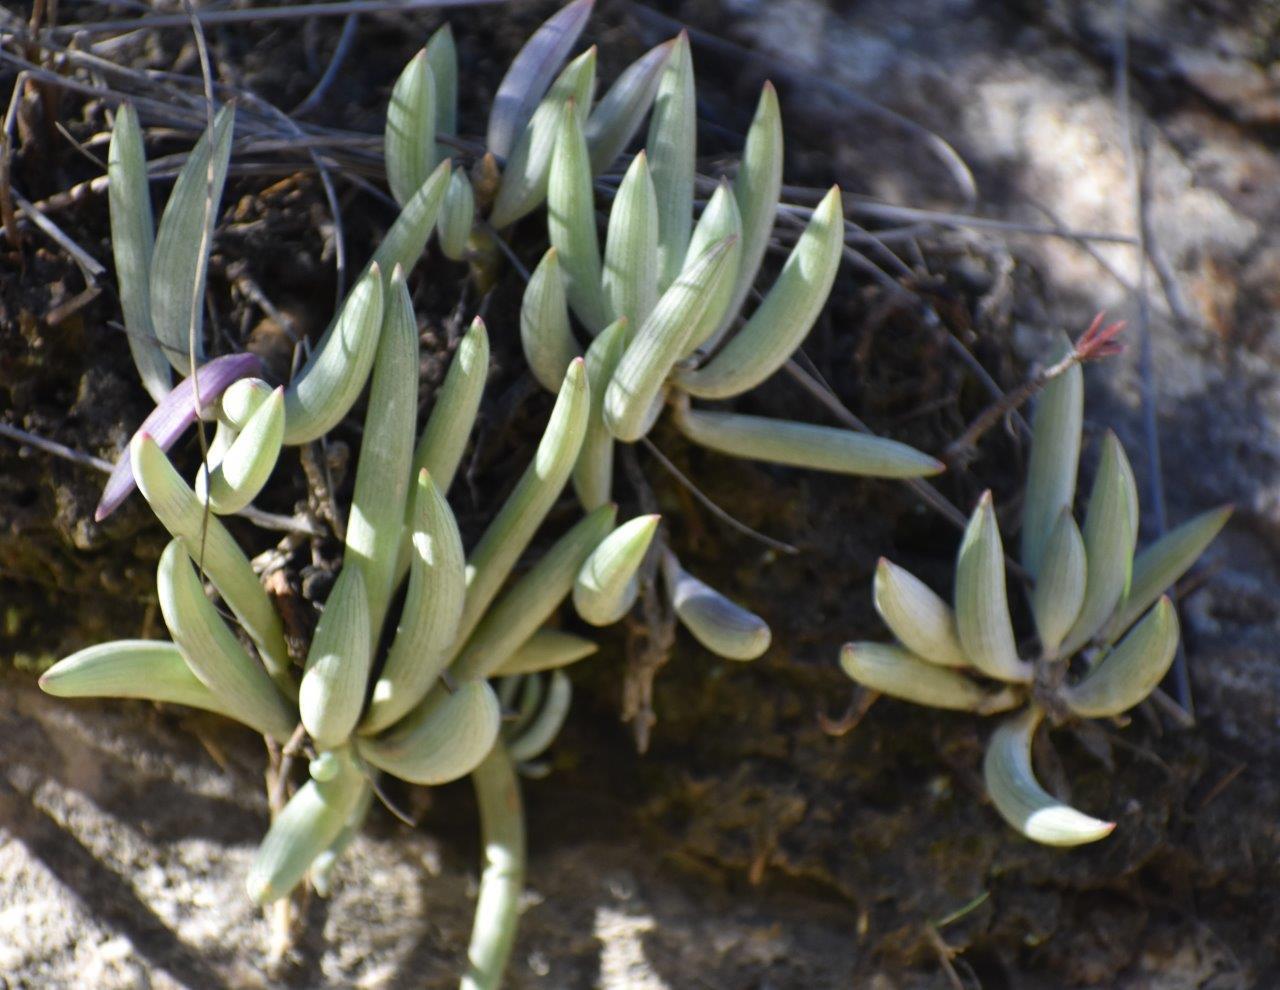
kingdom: Plantae
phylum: Tracheophyta
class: Magnoliopsida
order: Asterales
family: Asteraceae
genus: Curio
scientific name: Curio talinoides
